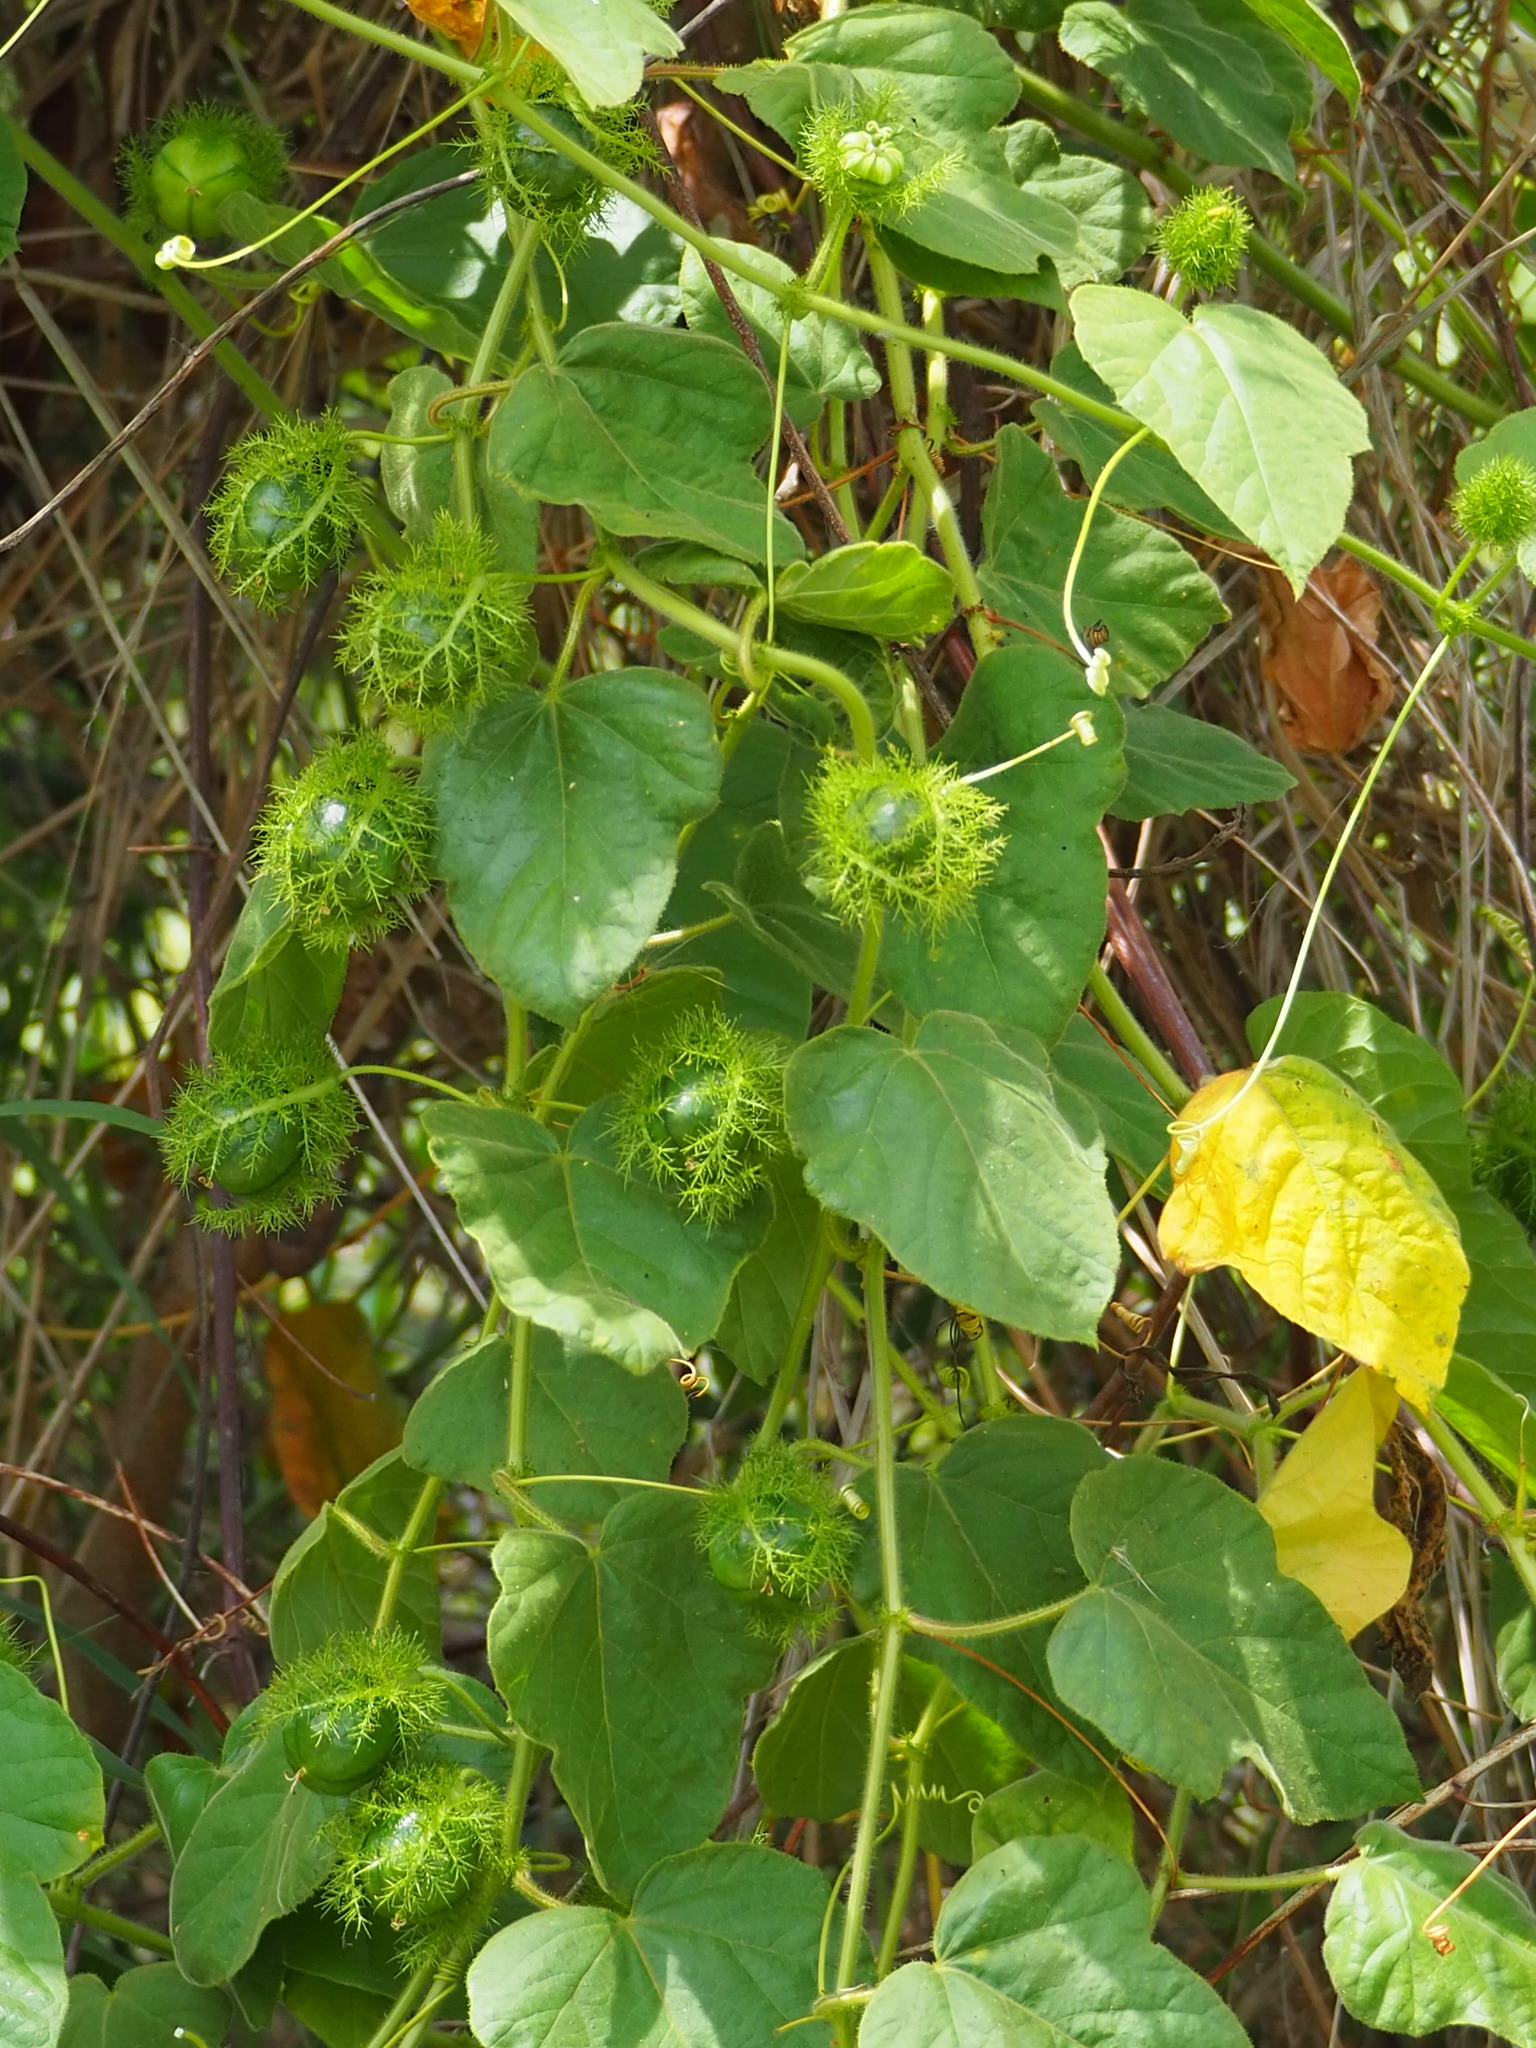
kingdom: Plantae
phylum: Tracheophyta
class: Magnoliopsida
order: Malpighiales
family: Passifloraceae
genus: Passiflora
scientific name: Passiflora vesicaria
